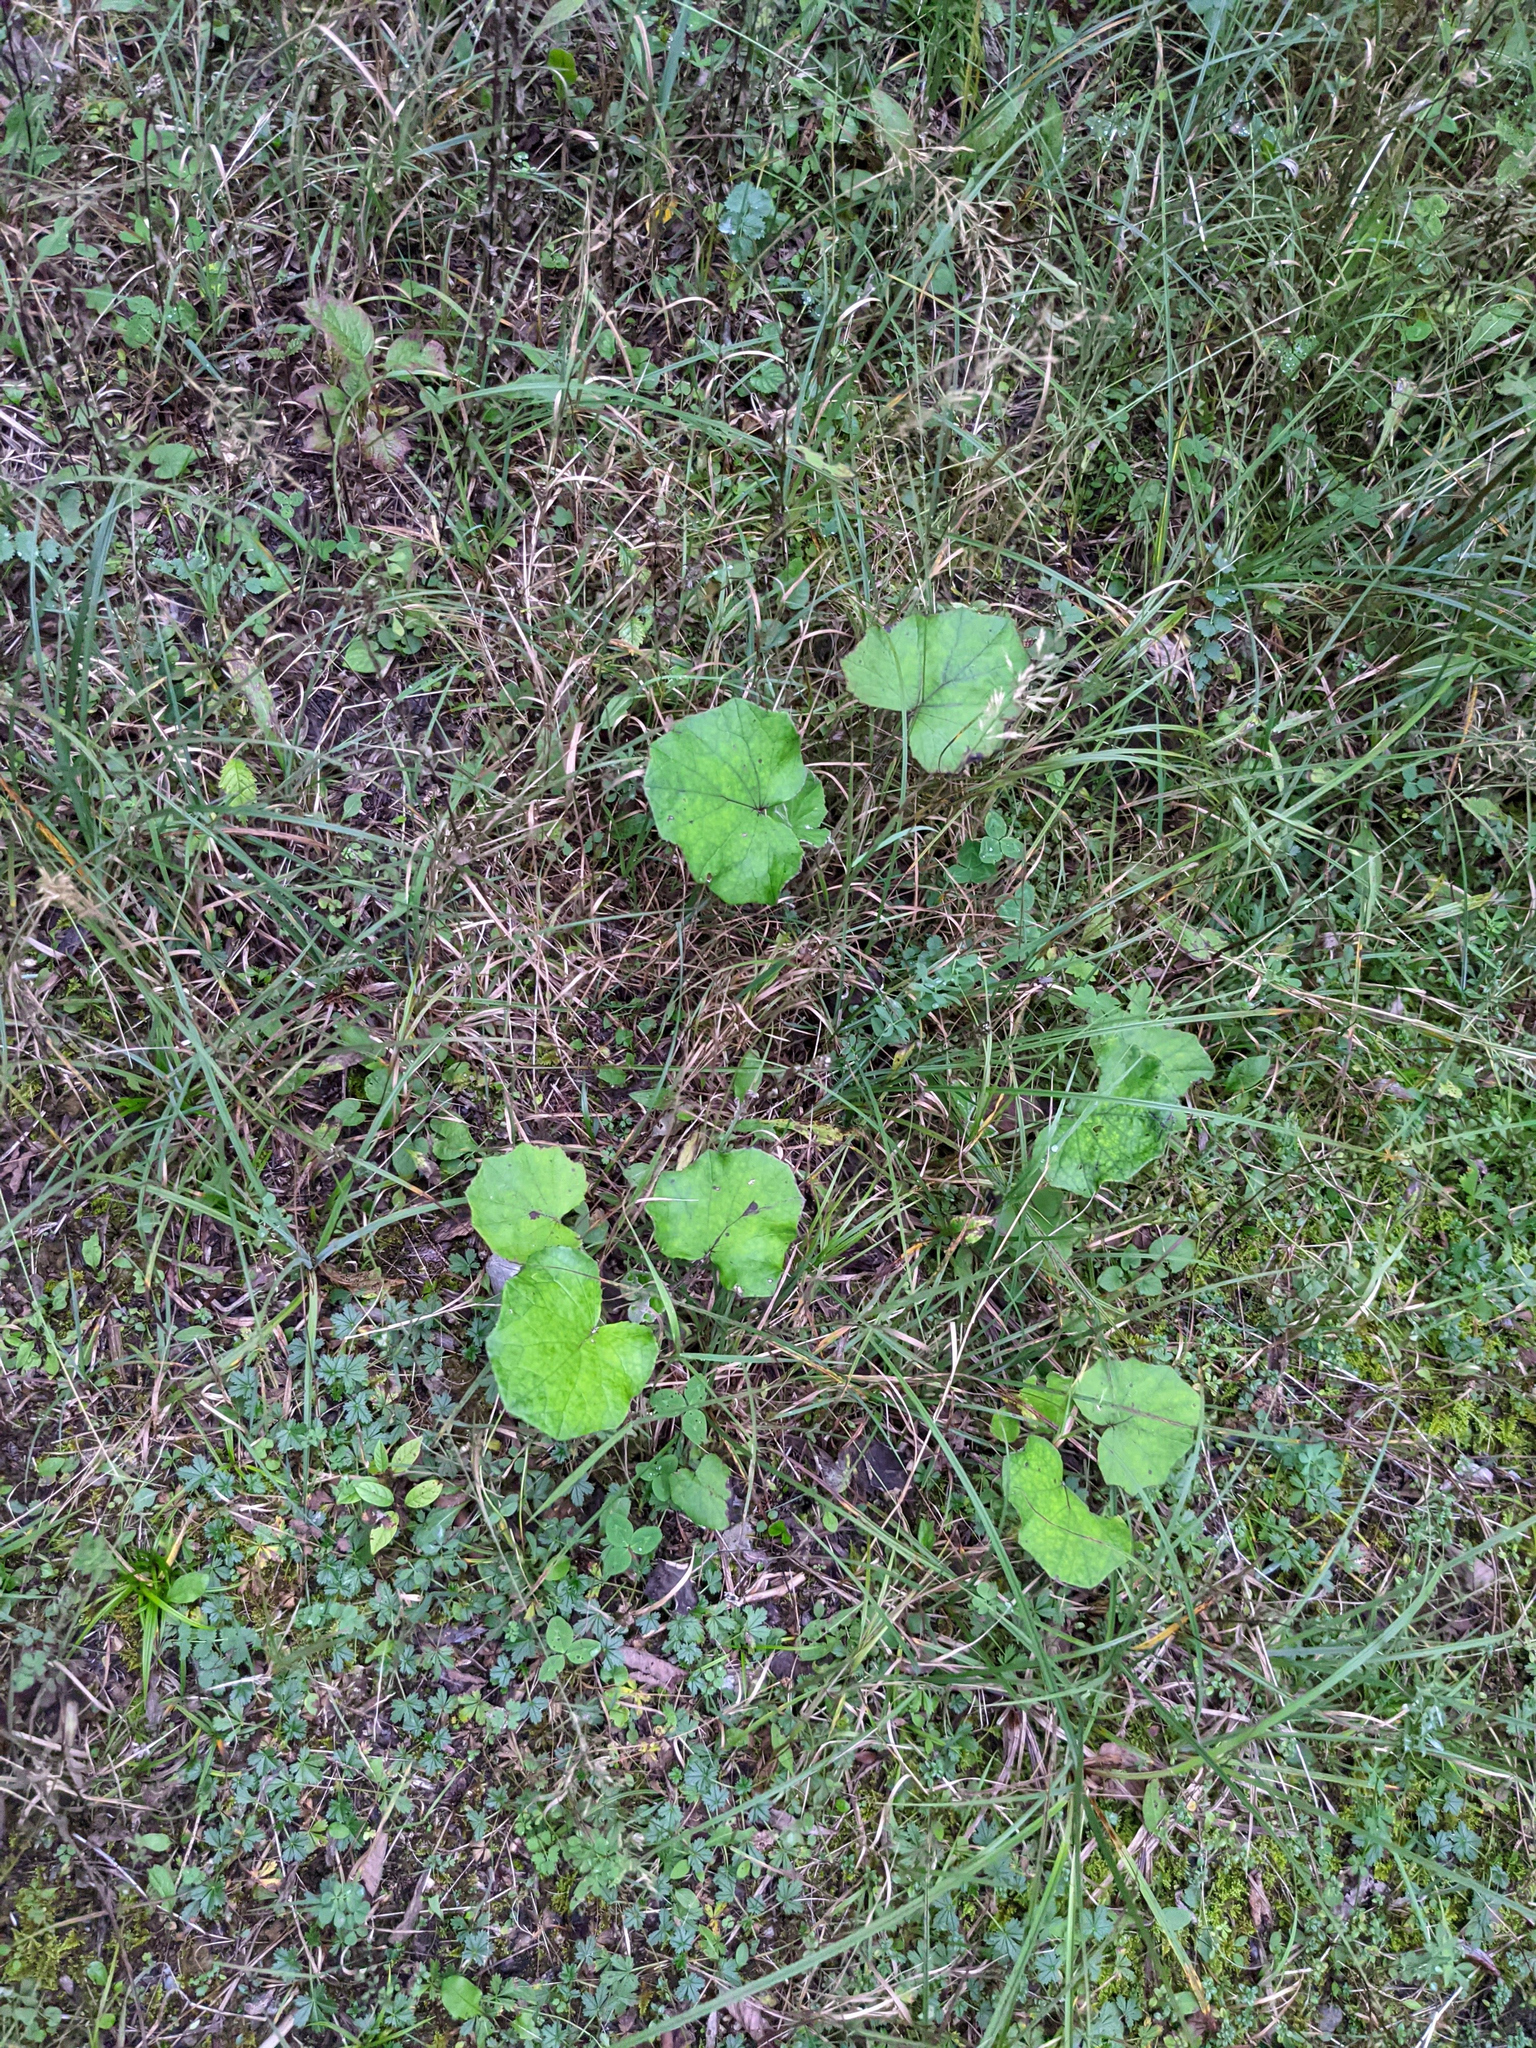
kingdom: Plantae
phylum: Tracheophyta
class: Magnoliopsida
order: Asterales
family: Asteraceae
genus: Tussilago
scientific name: Tussilago farfara
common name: Coltsfoot
